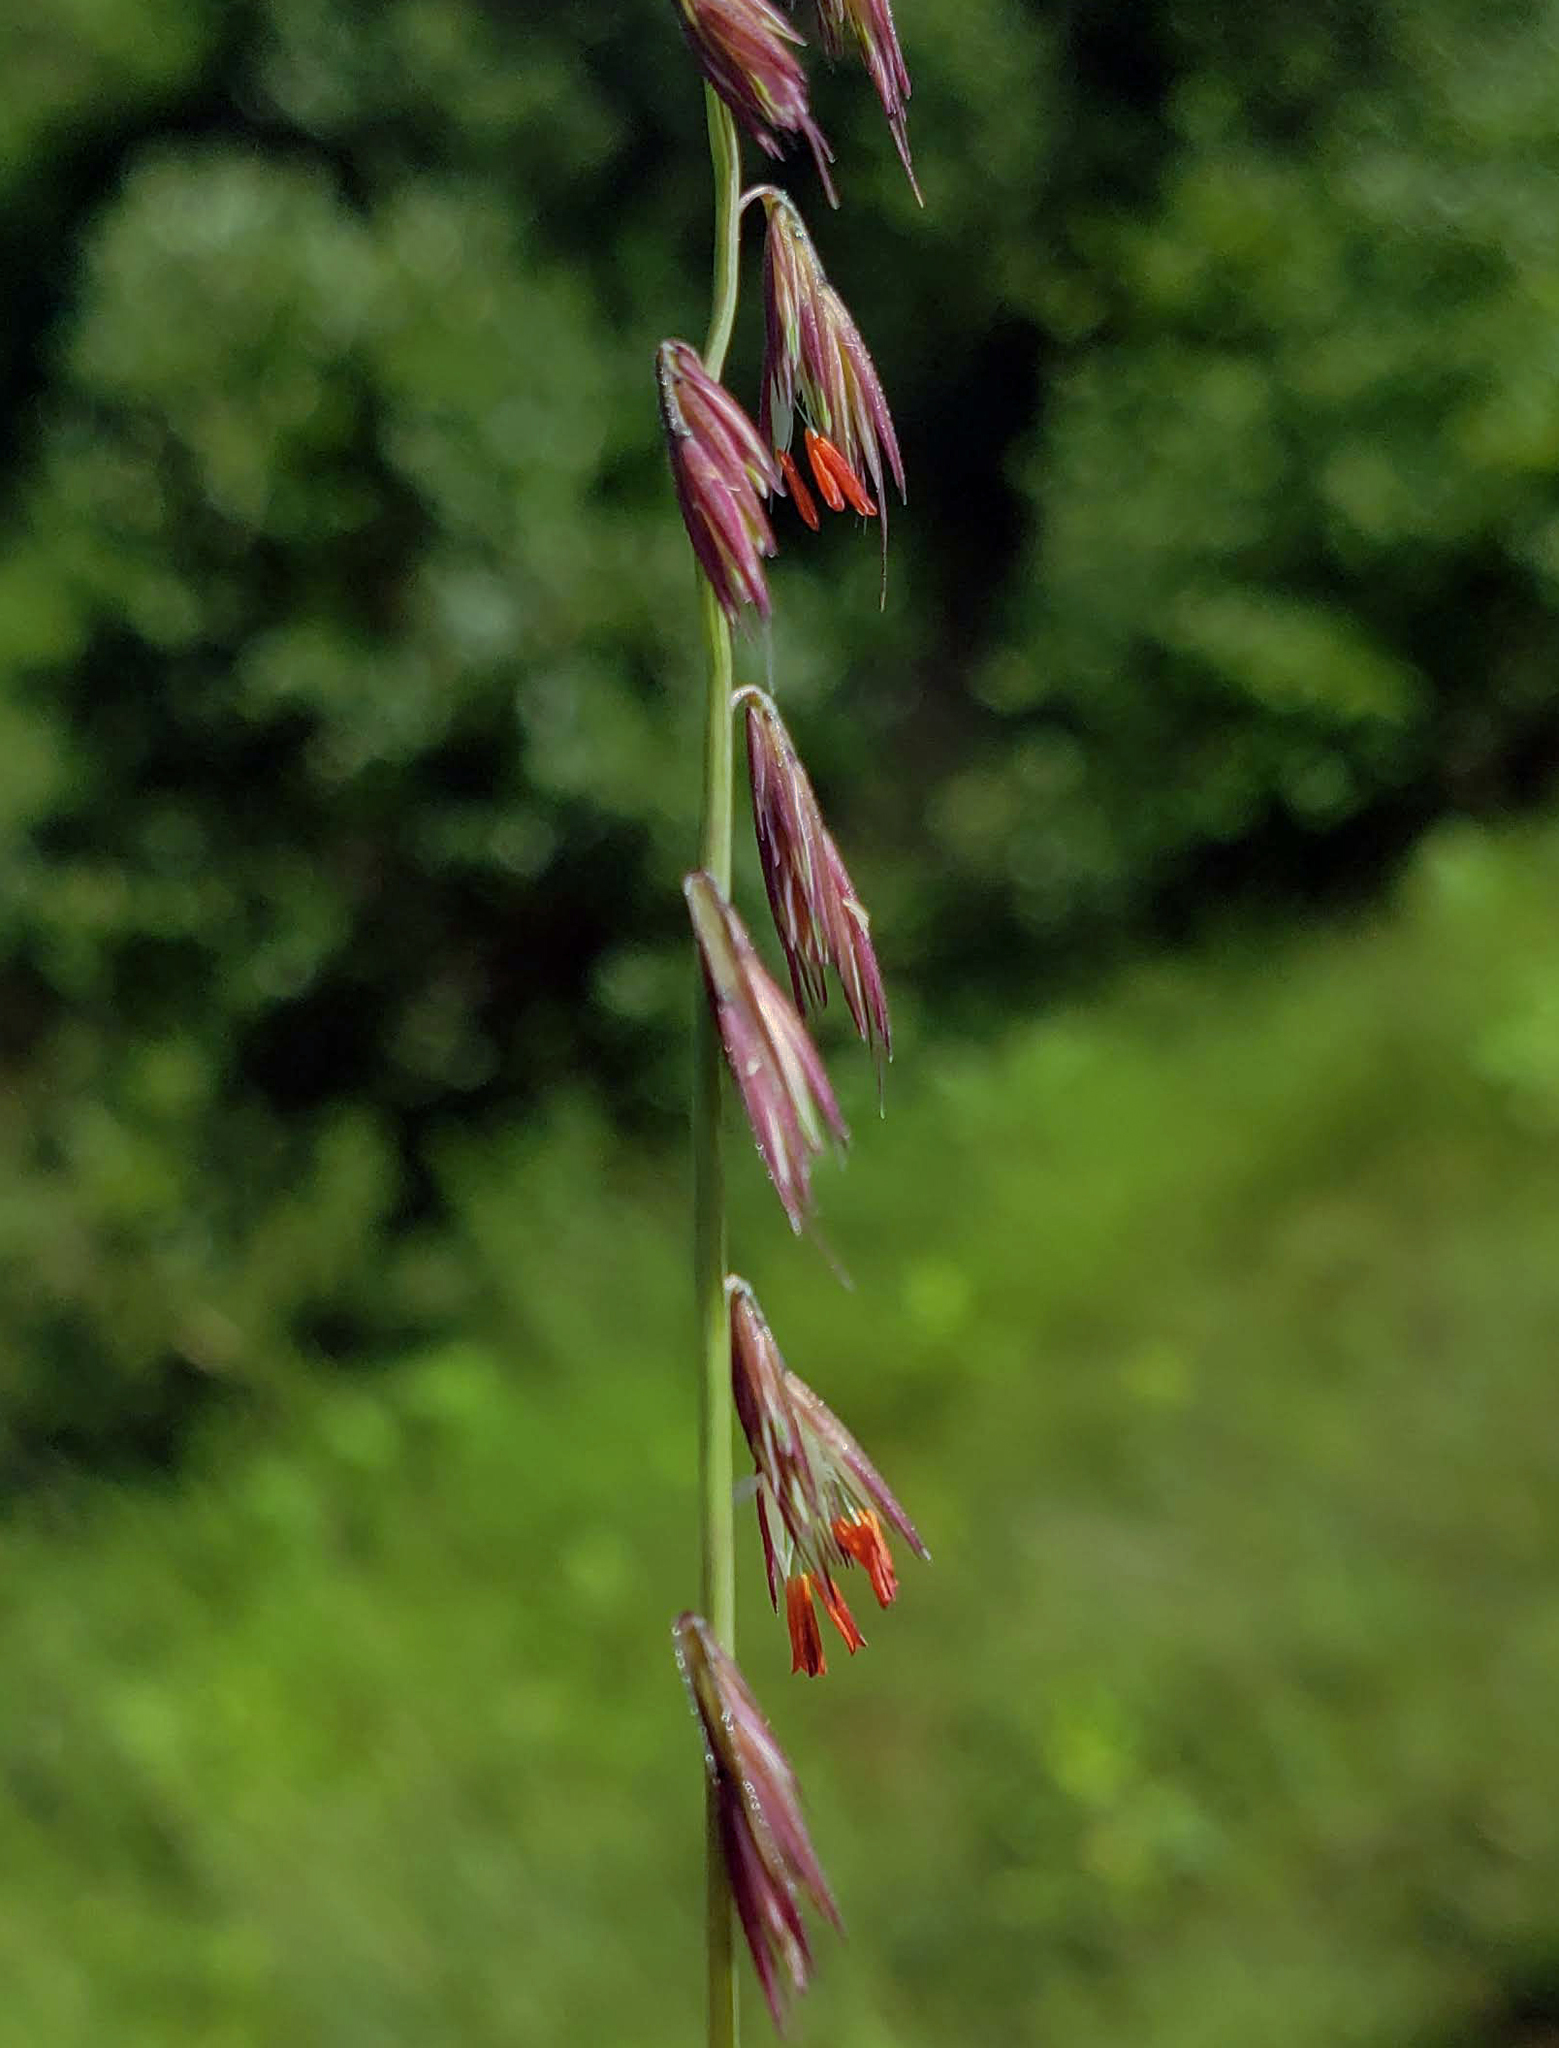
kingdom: Plantae
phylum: Tracheophyta
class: Liliopsida
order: Poales
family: Poaceae
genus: Bouteloua
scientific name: Bouteloua curtipendula
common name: Side-oats grama
